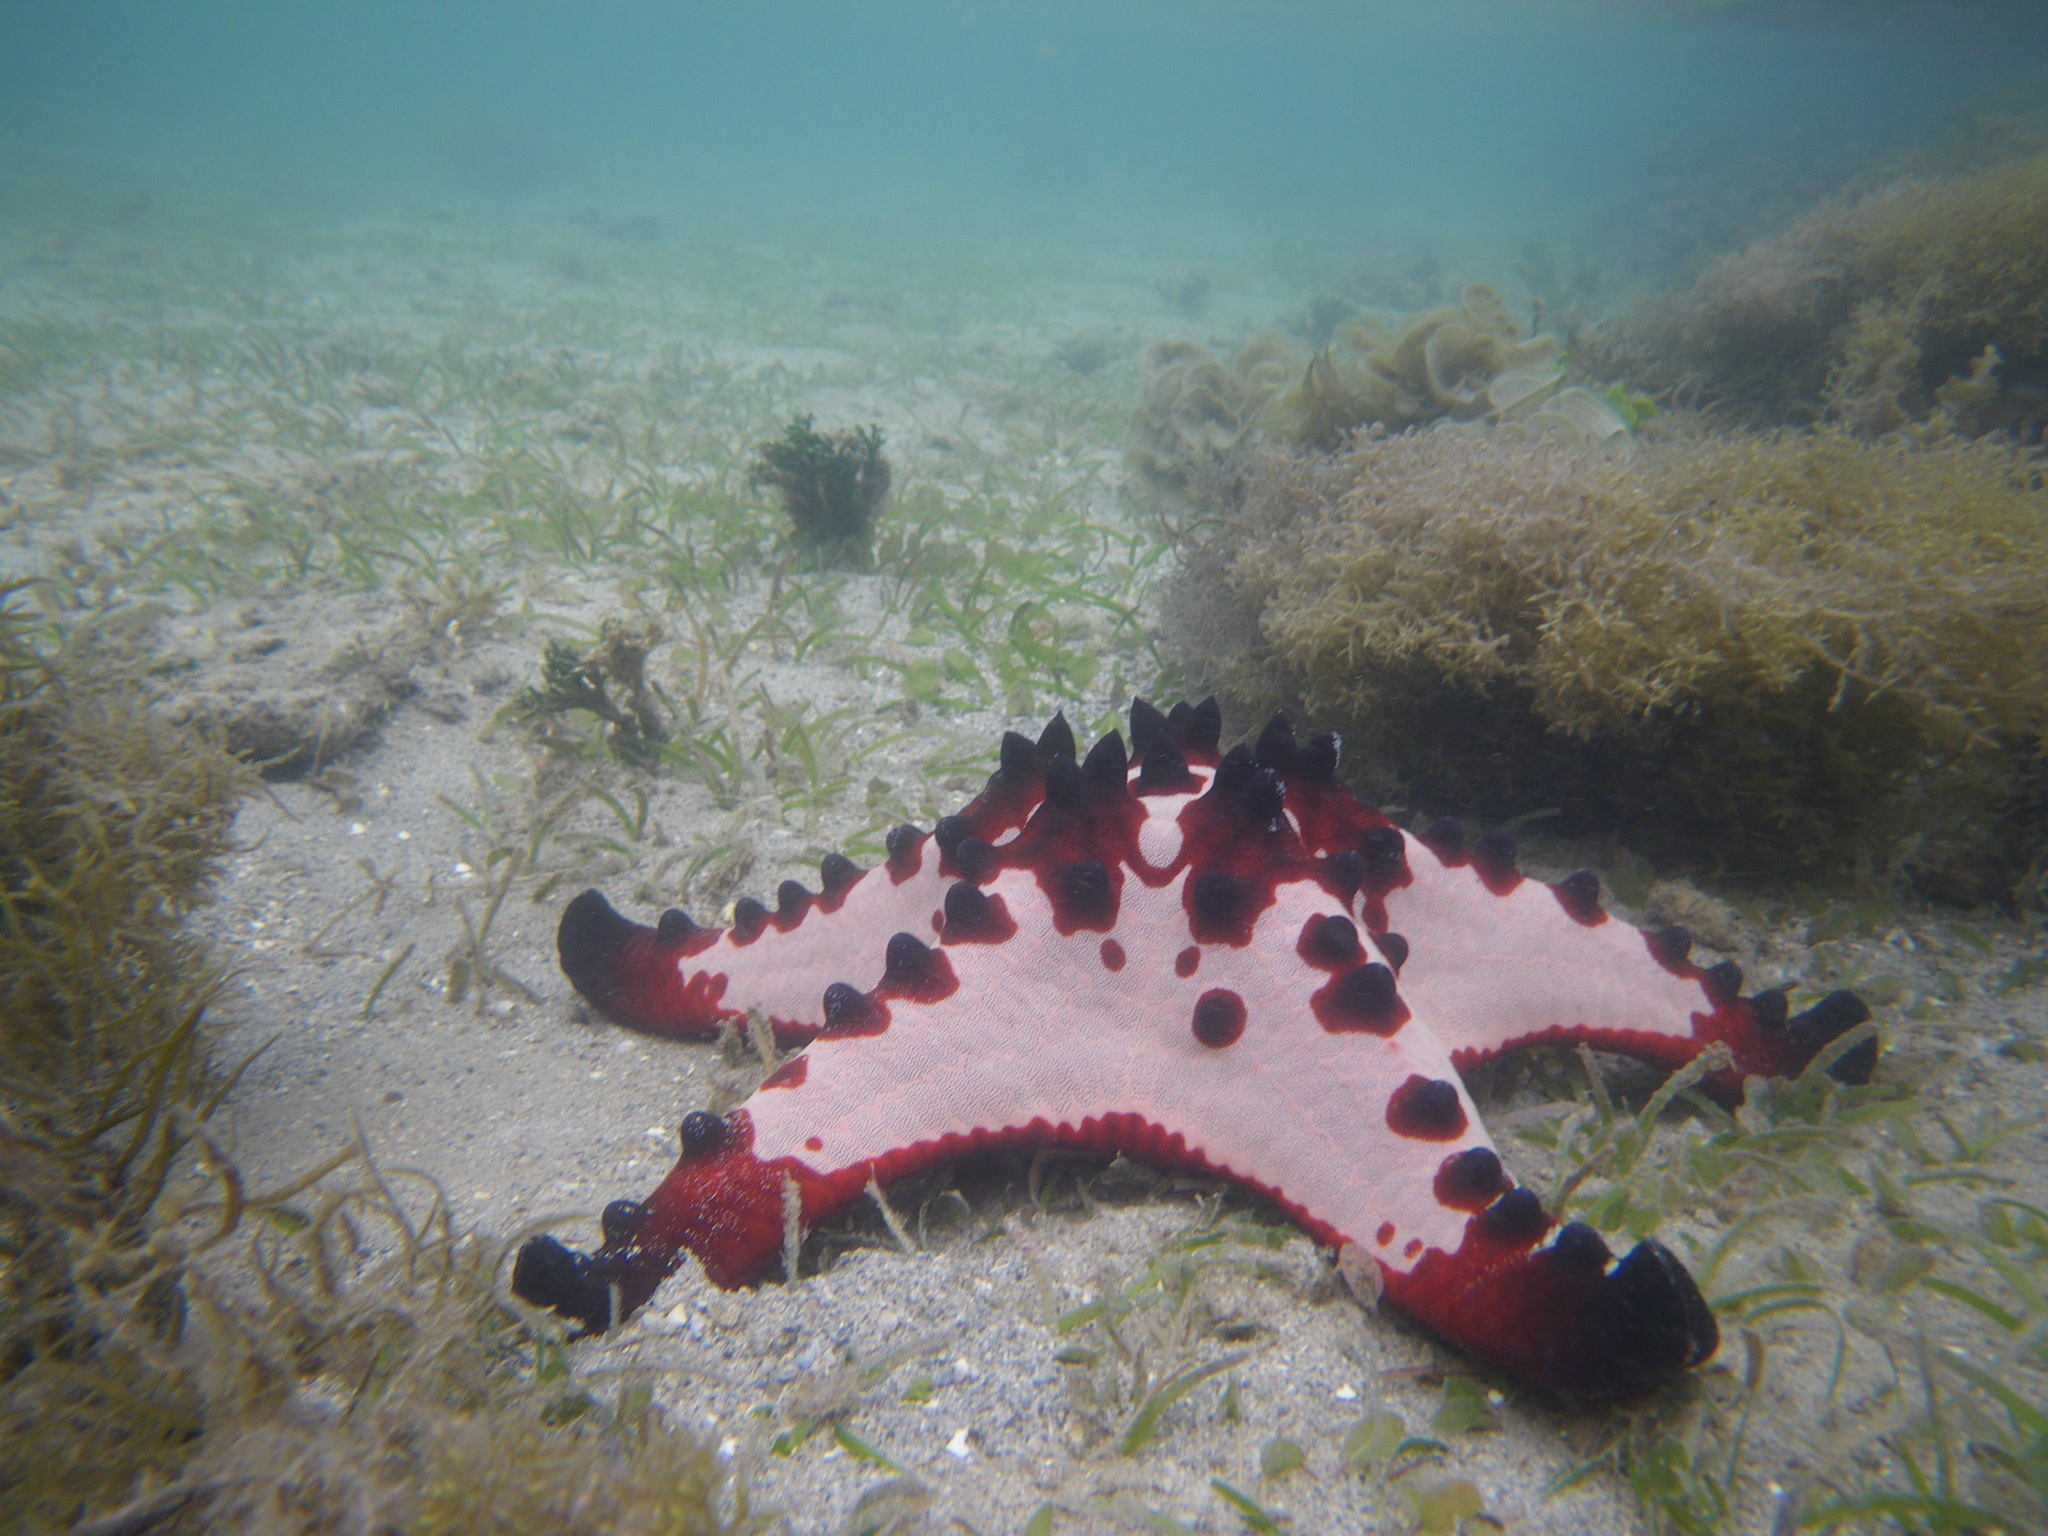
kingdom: Animalia
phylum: Echinodermata
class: Asteroidea
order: Valvatida
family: Oreasteridae
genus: Protoreaster
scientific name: Protoreaster nodosus
